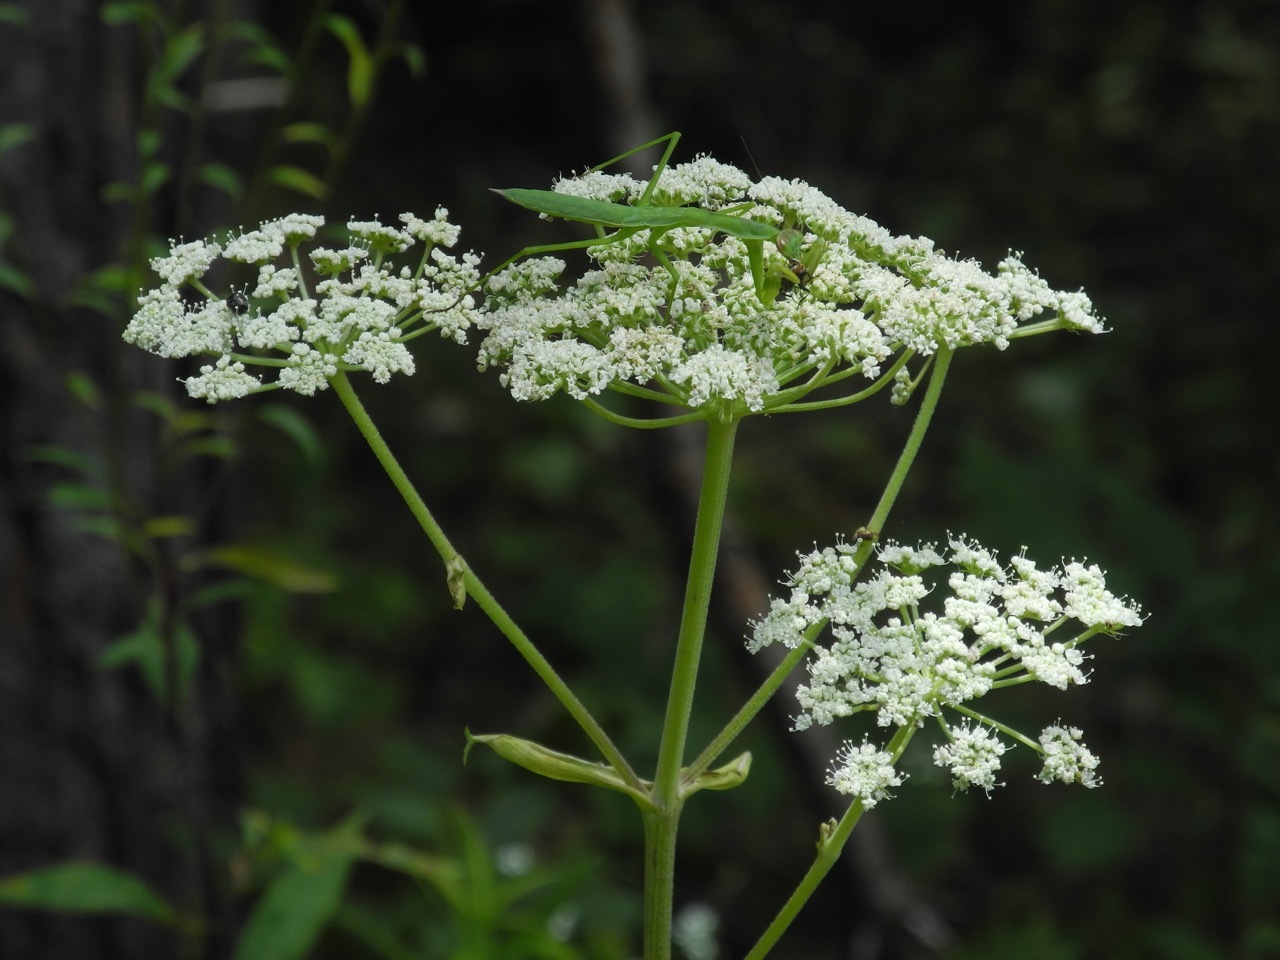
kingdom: Animalia
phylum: Arthropoda
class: Insecta
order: Mantodea
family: Mantidae
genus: Tenodera
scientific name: Tenodera sinensis
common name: Chinese mantis
